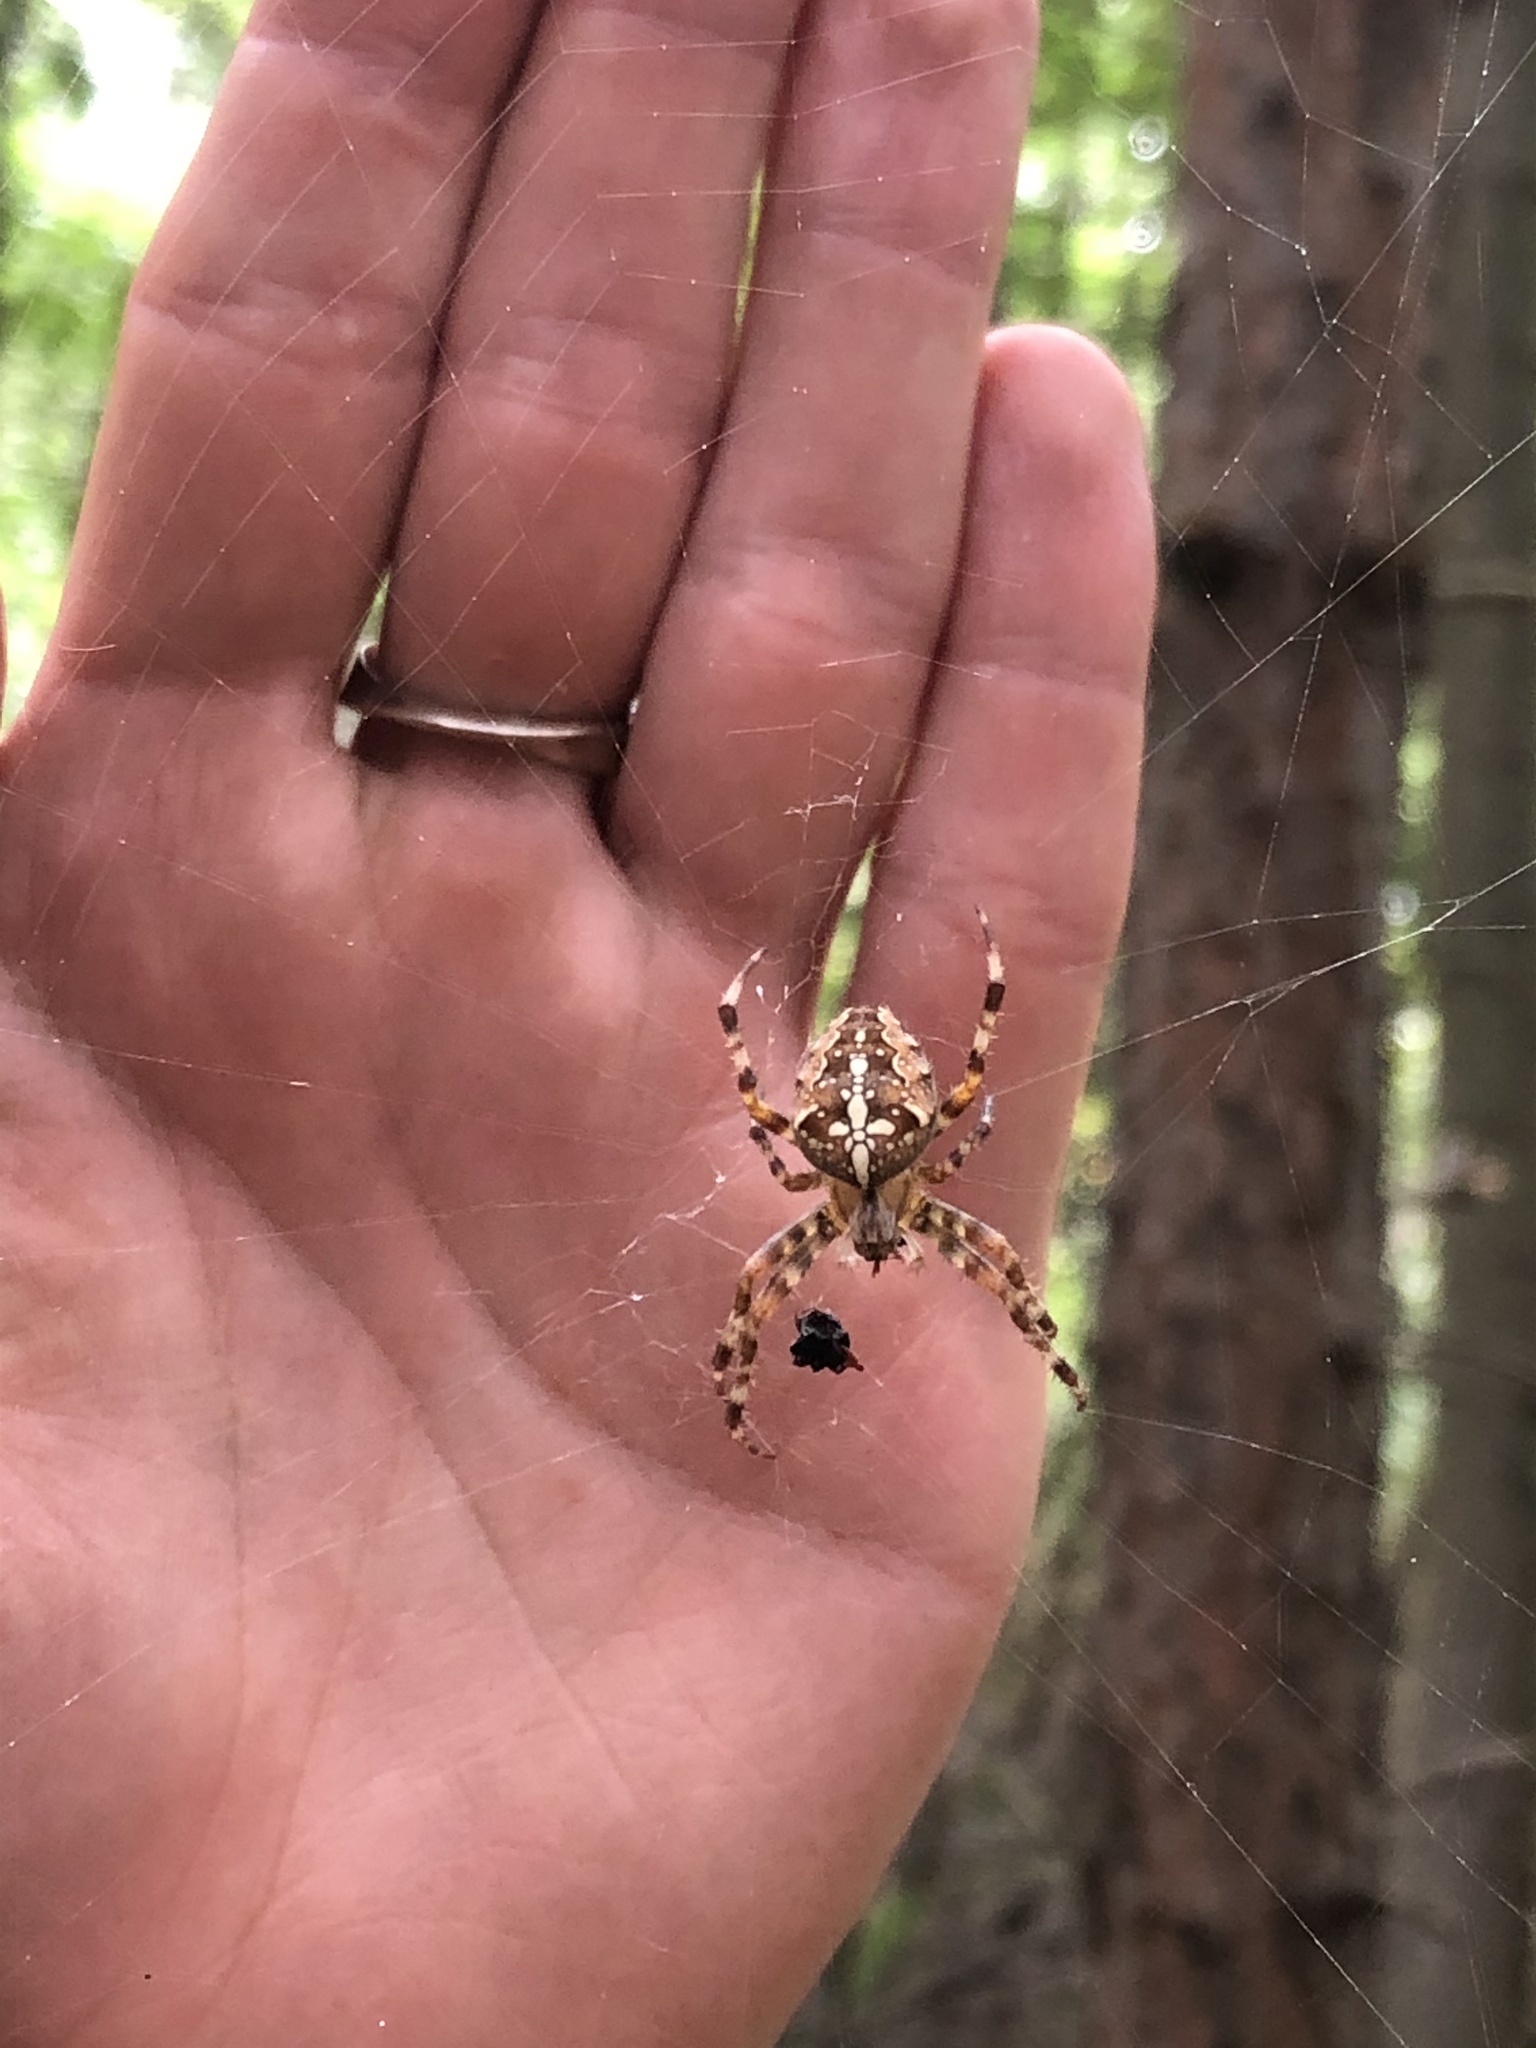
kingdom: Animalia
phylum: Arthropoda
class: Arachnida
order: Araneae
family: Araneidae
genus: Araneus
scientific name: Araneus diadematus
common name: Cross orbweaver
